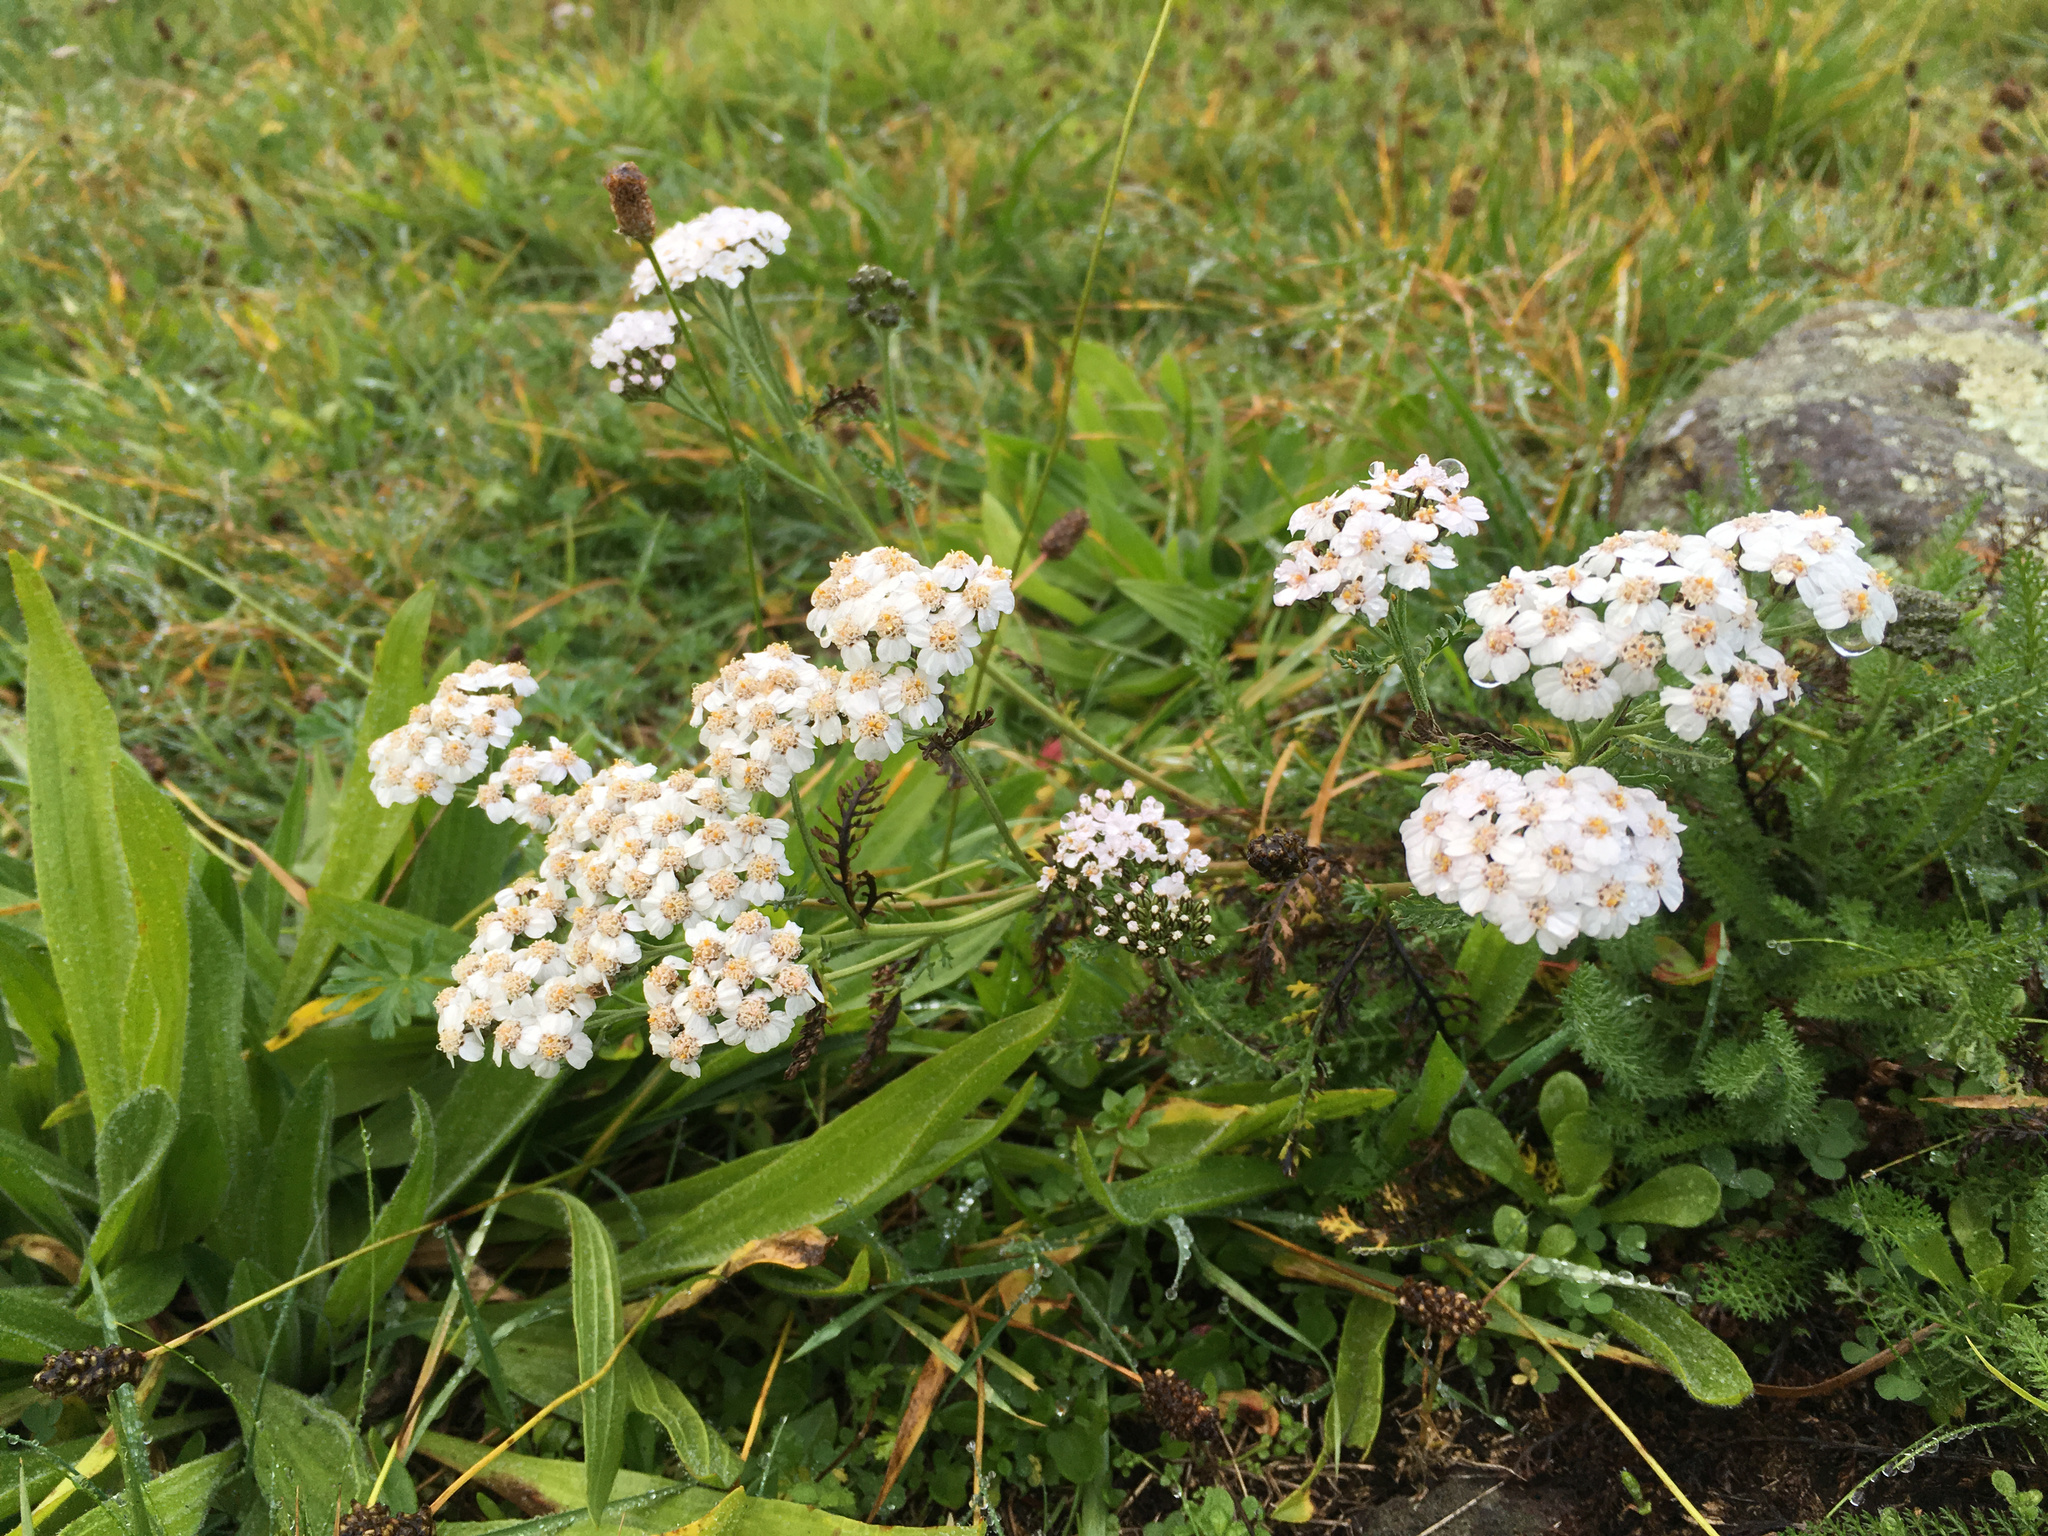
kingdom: Plantae
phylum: Tracheophyta
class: Magnoliopsida
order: Asterales
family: Asteraceae
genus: Achillea
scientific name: Achillea millefolium
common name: Yarrow
